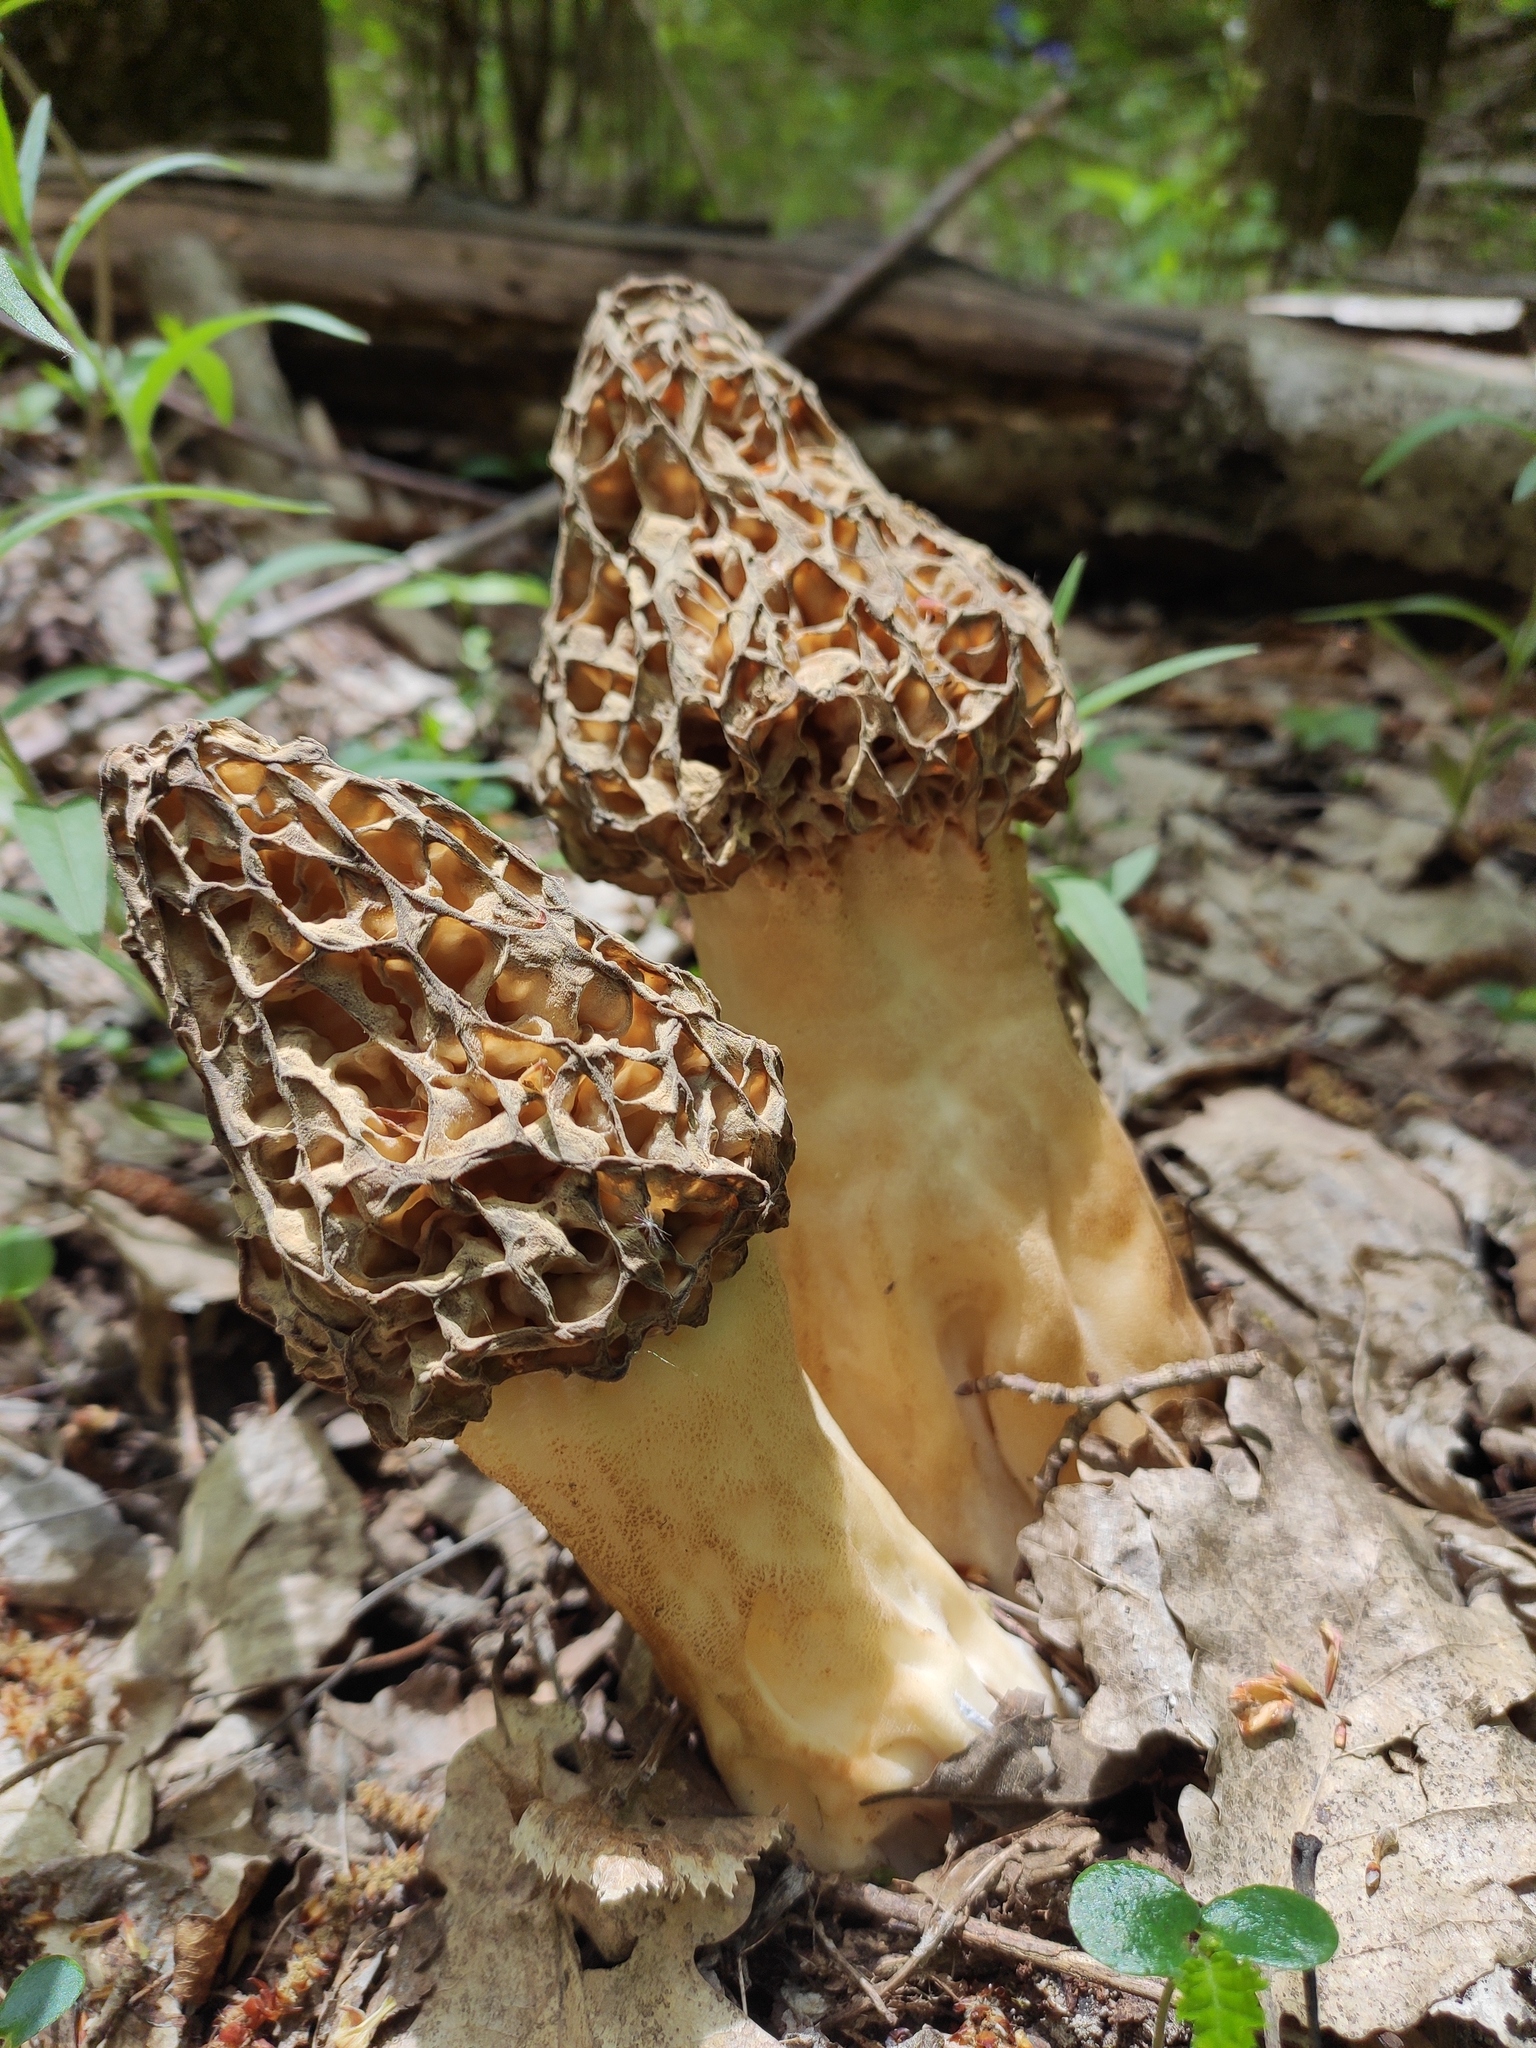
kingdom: Fungi
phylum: Ascomycota
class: Pezizomycetes
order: Pezizales
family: Morchellaceae
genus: Morchella
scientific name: Morchella
